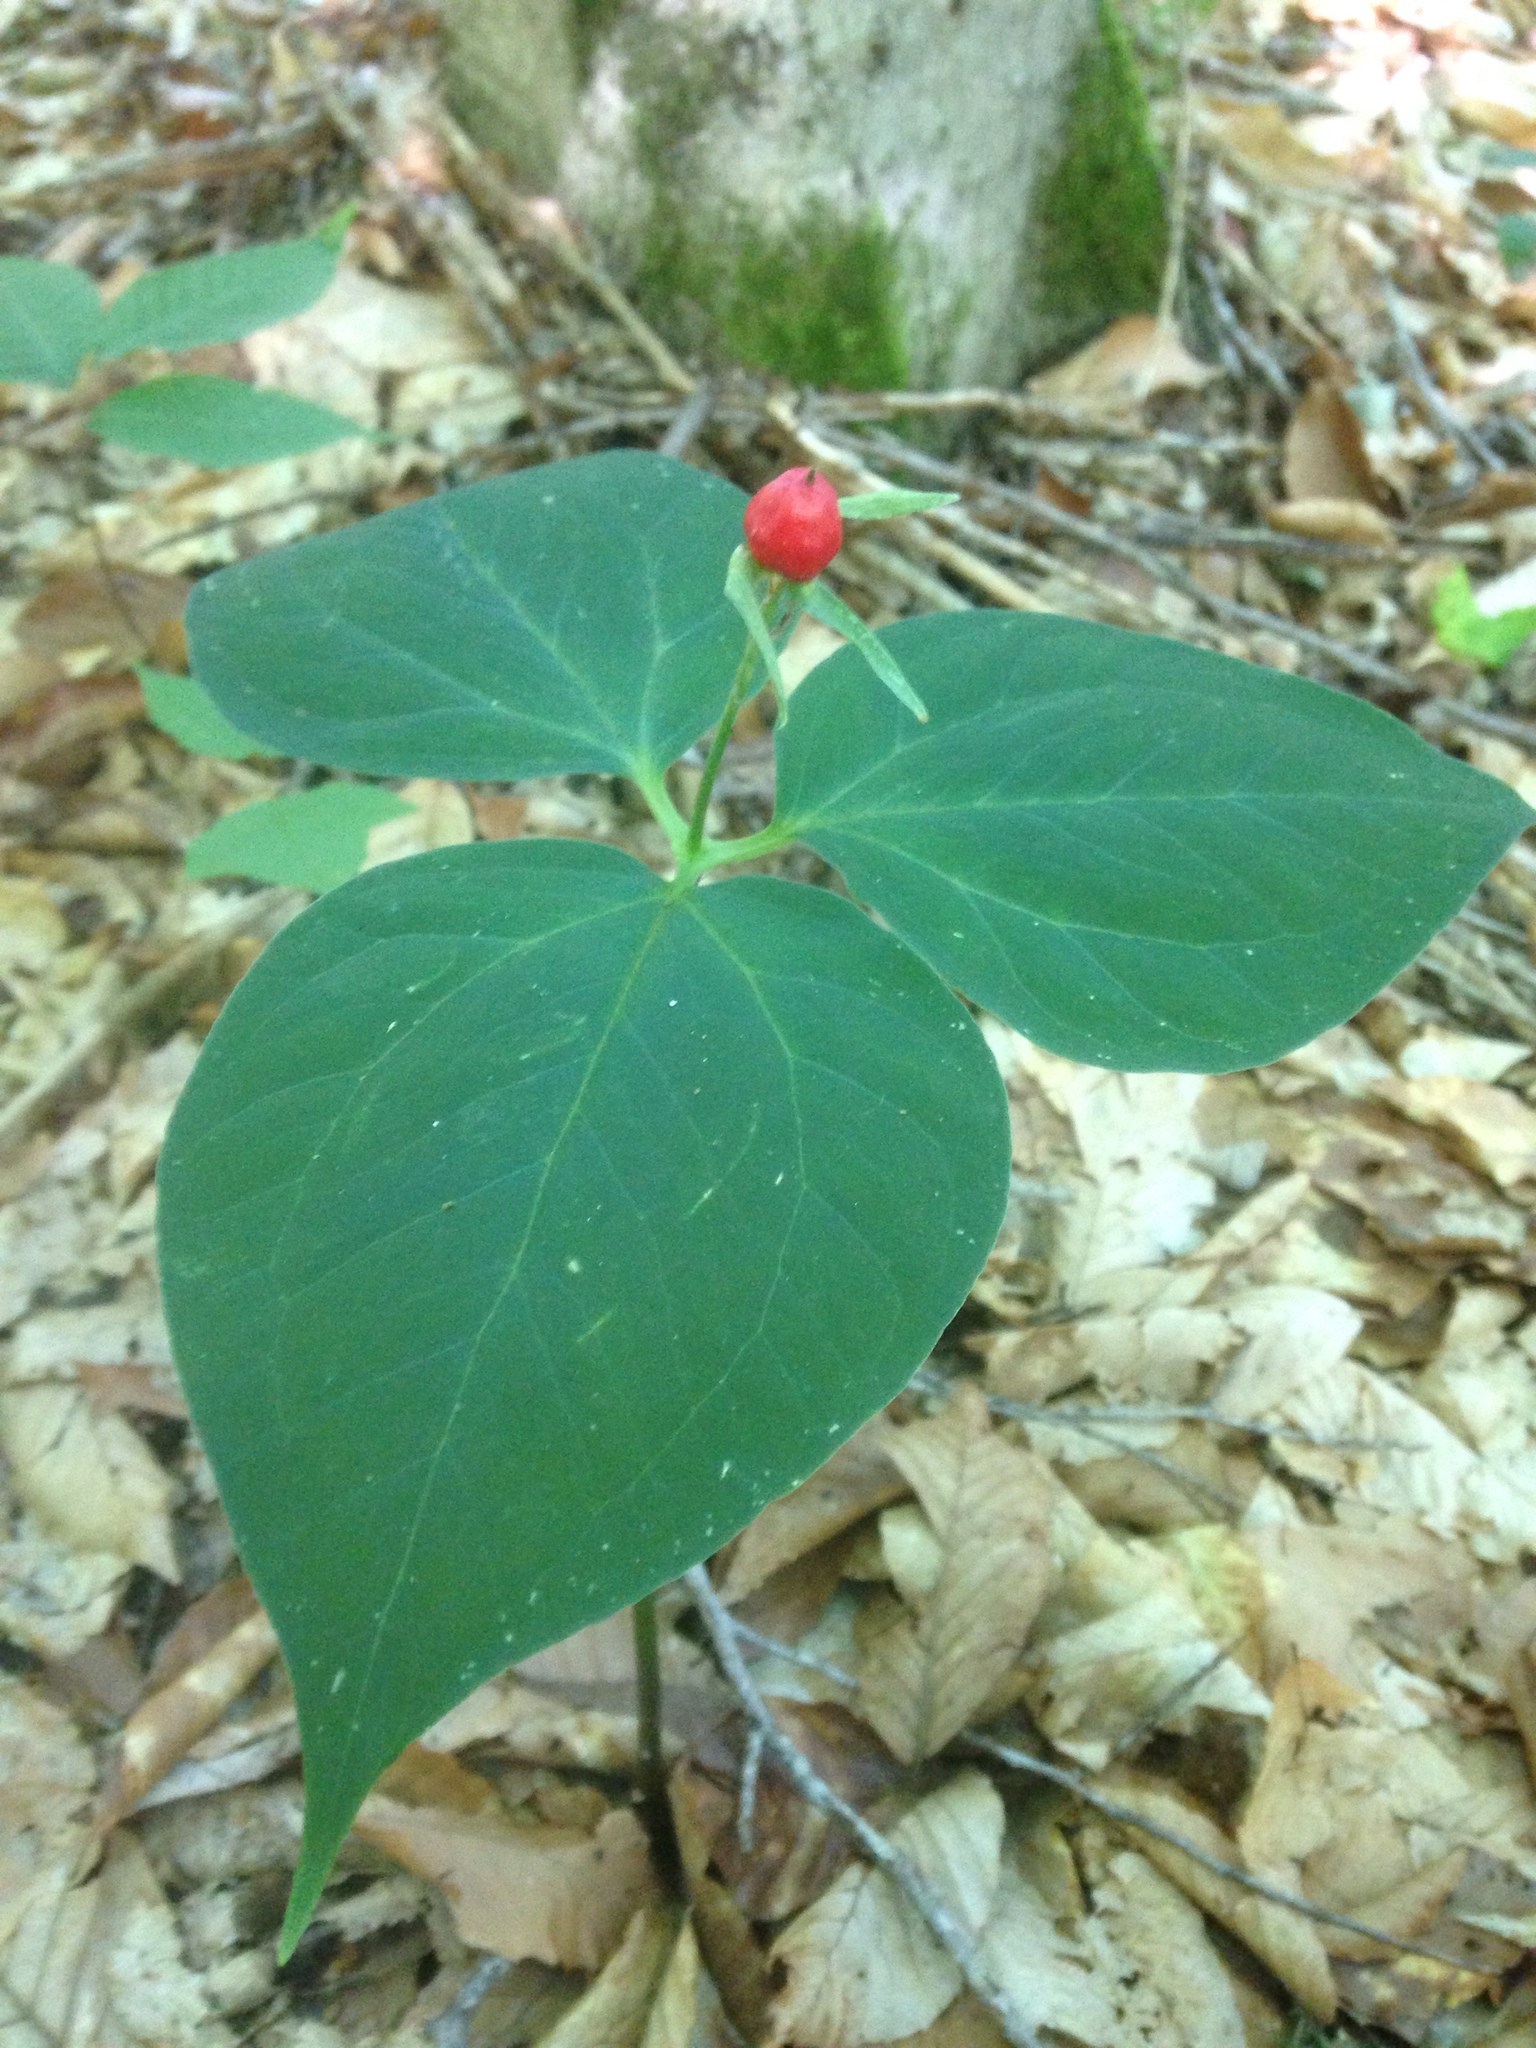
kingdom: Plantae
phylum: Tracheophyta
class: Liliopsida
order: Liliales
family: Melanthiaceae
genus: Trillium
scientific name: Trillium undulatum
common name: Paint trillium
